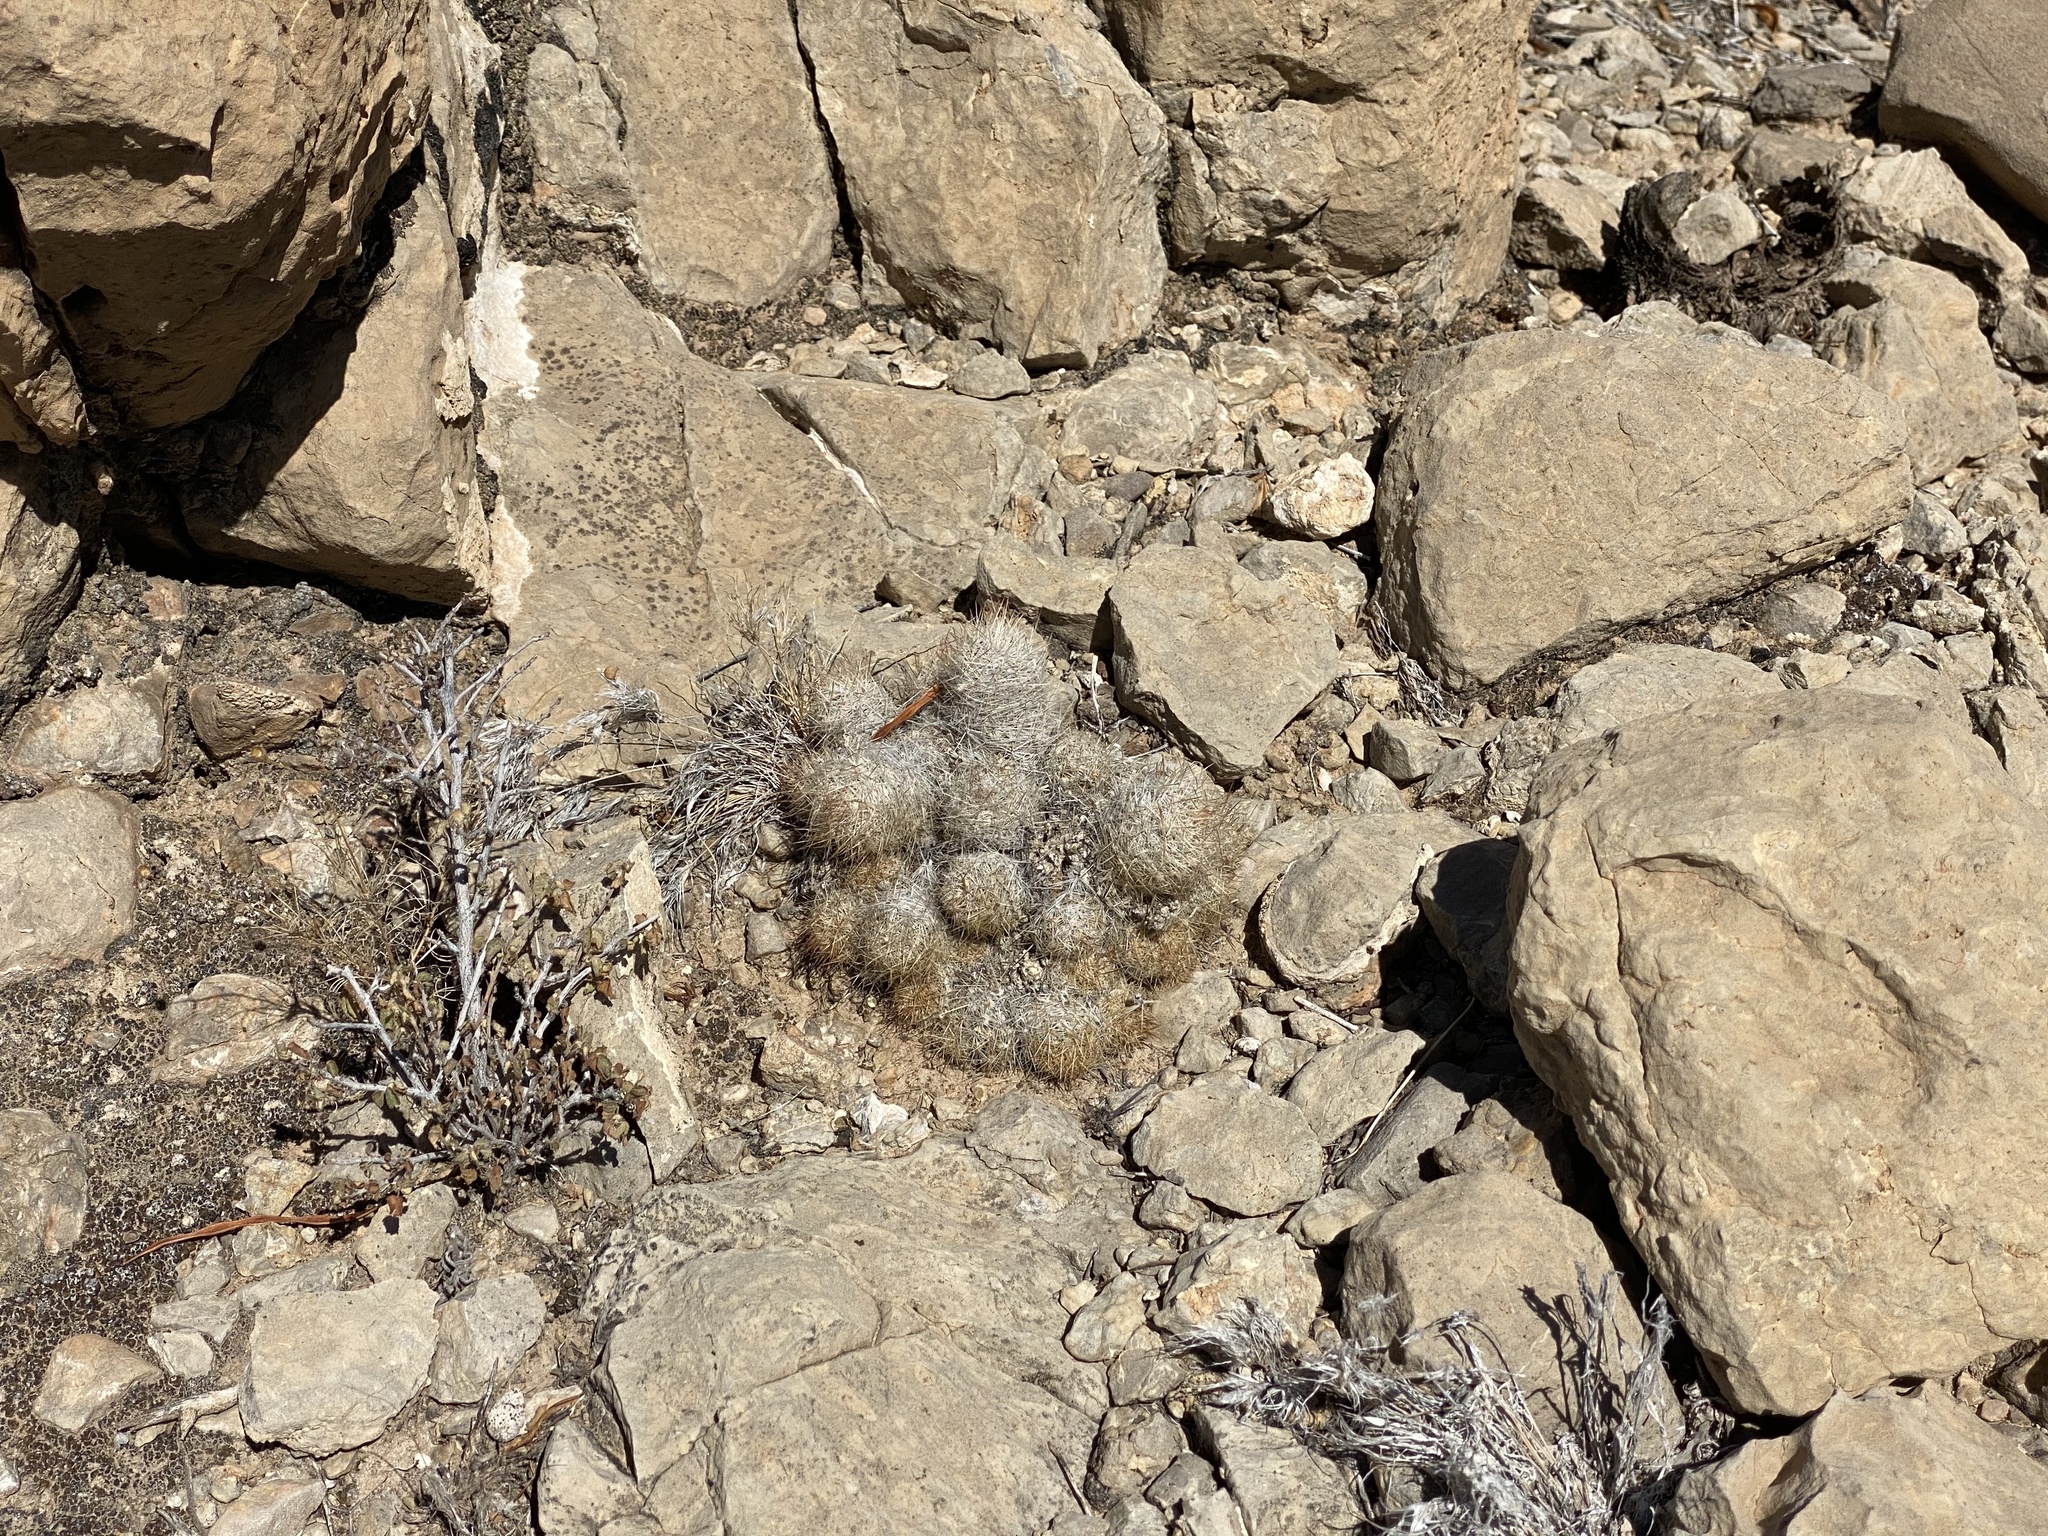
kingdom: Plantae
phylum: Tracheophyta
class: Magnoliopsida
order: Caryophyllales
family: Cactaceae
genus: Pelecyphora
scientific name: Pelecyphora tuberculosa
